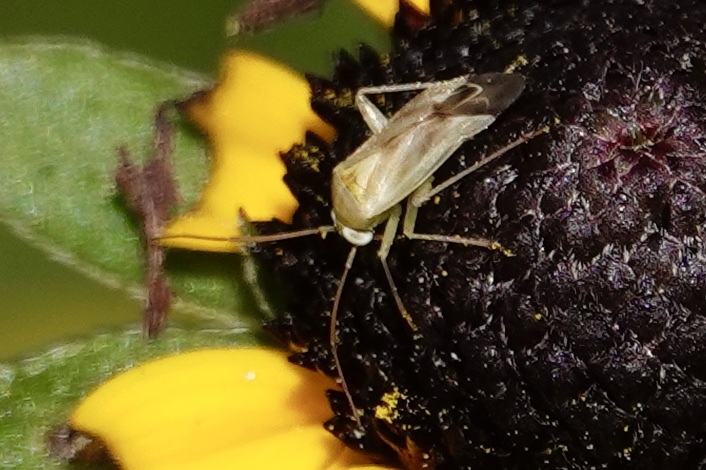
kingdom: Animalia
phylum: Arthropoda
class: Insecta
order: Hemiptera
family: Miridae
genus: Taylorilygus
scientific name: Taylorilygus apicalis
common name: Plant bug
